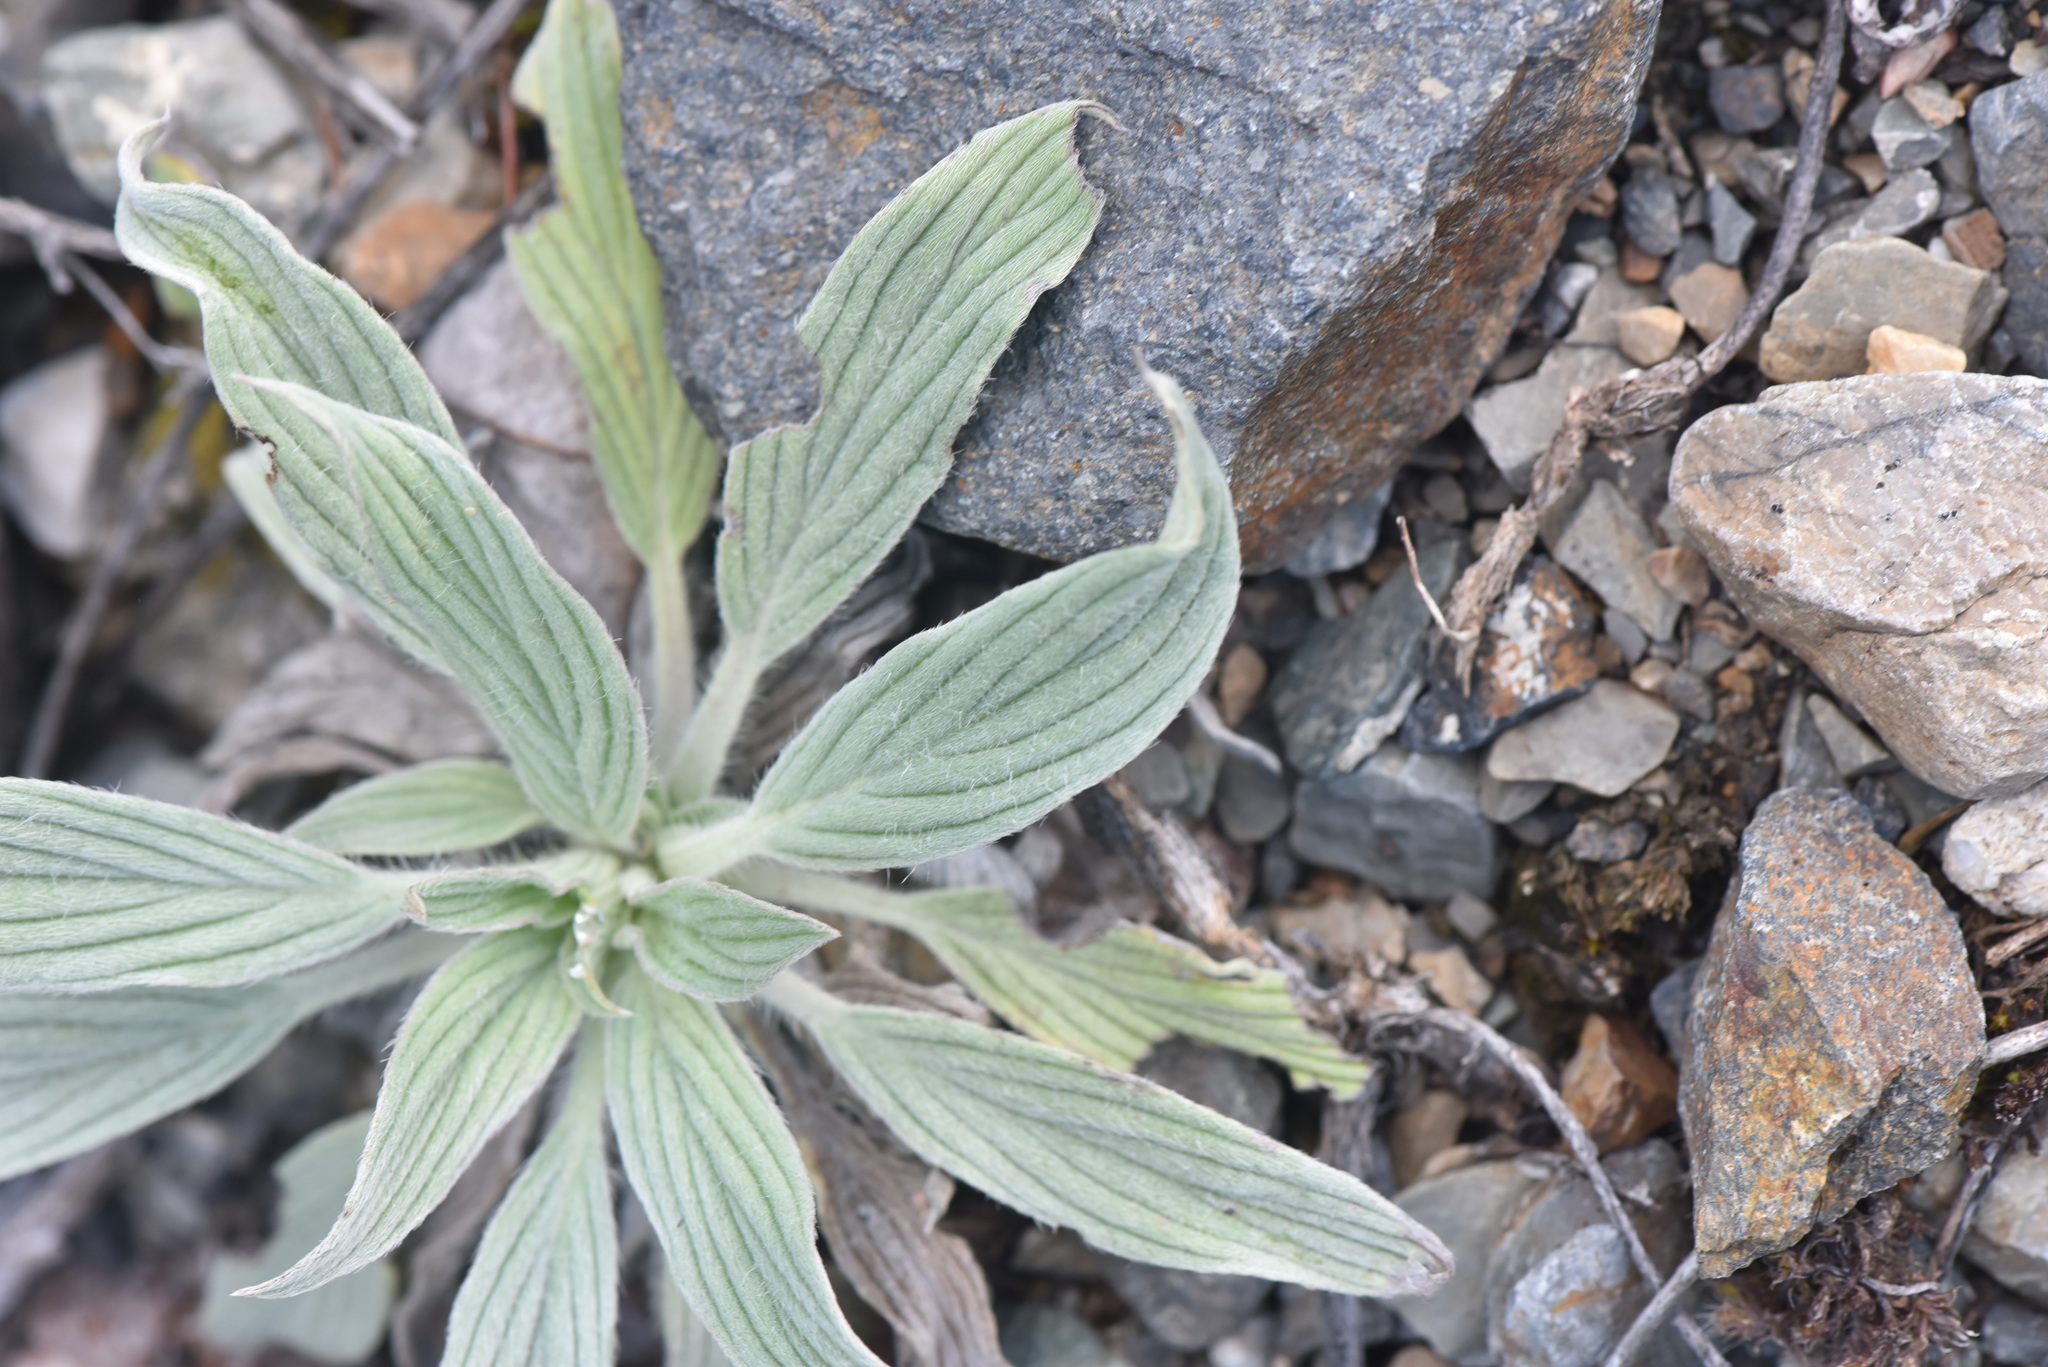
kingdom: Plantae
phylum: Tracheophyta
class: Magnoliopsida
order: Boraginales
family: Hydrophyllaceae
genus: Phacelia
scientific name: Phacelia hastata
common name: Silver-leaved phacelia
